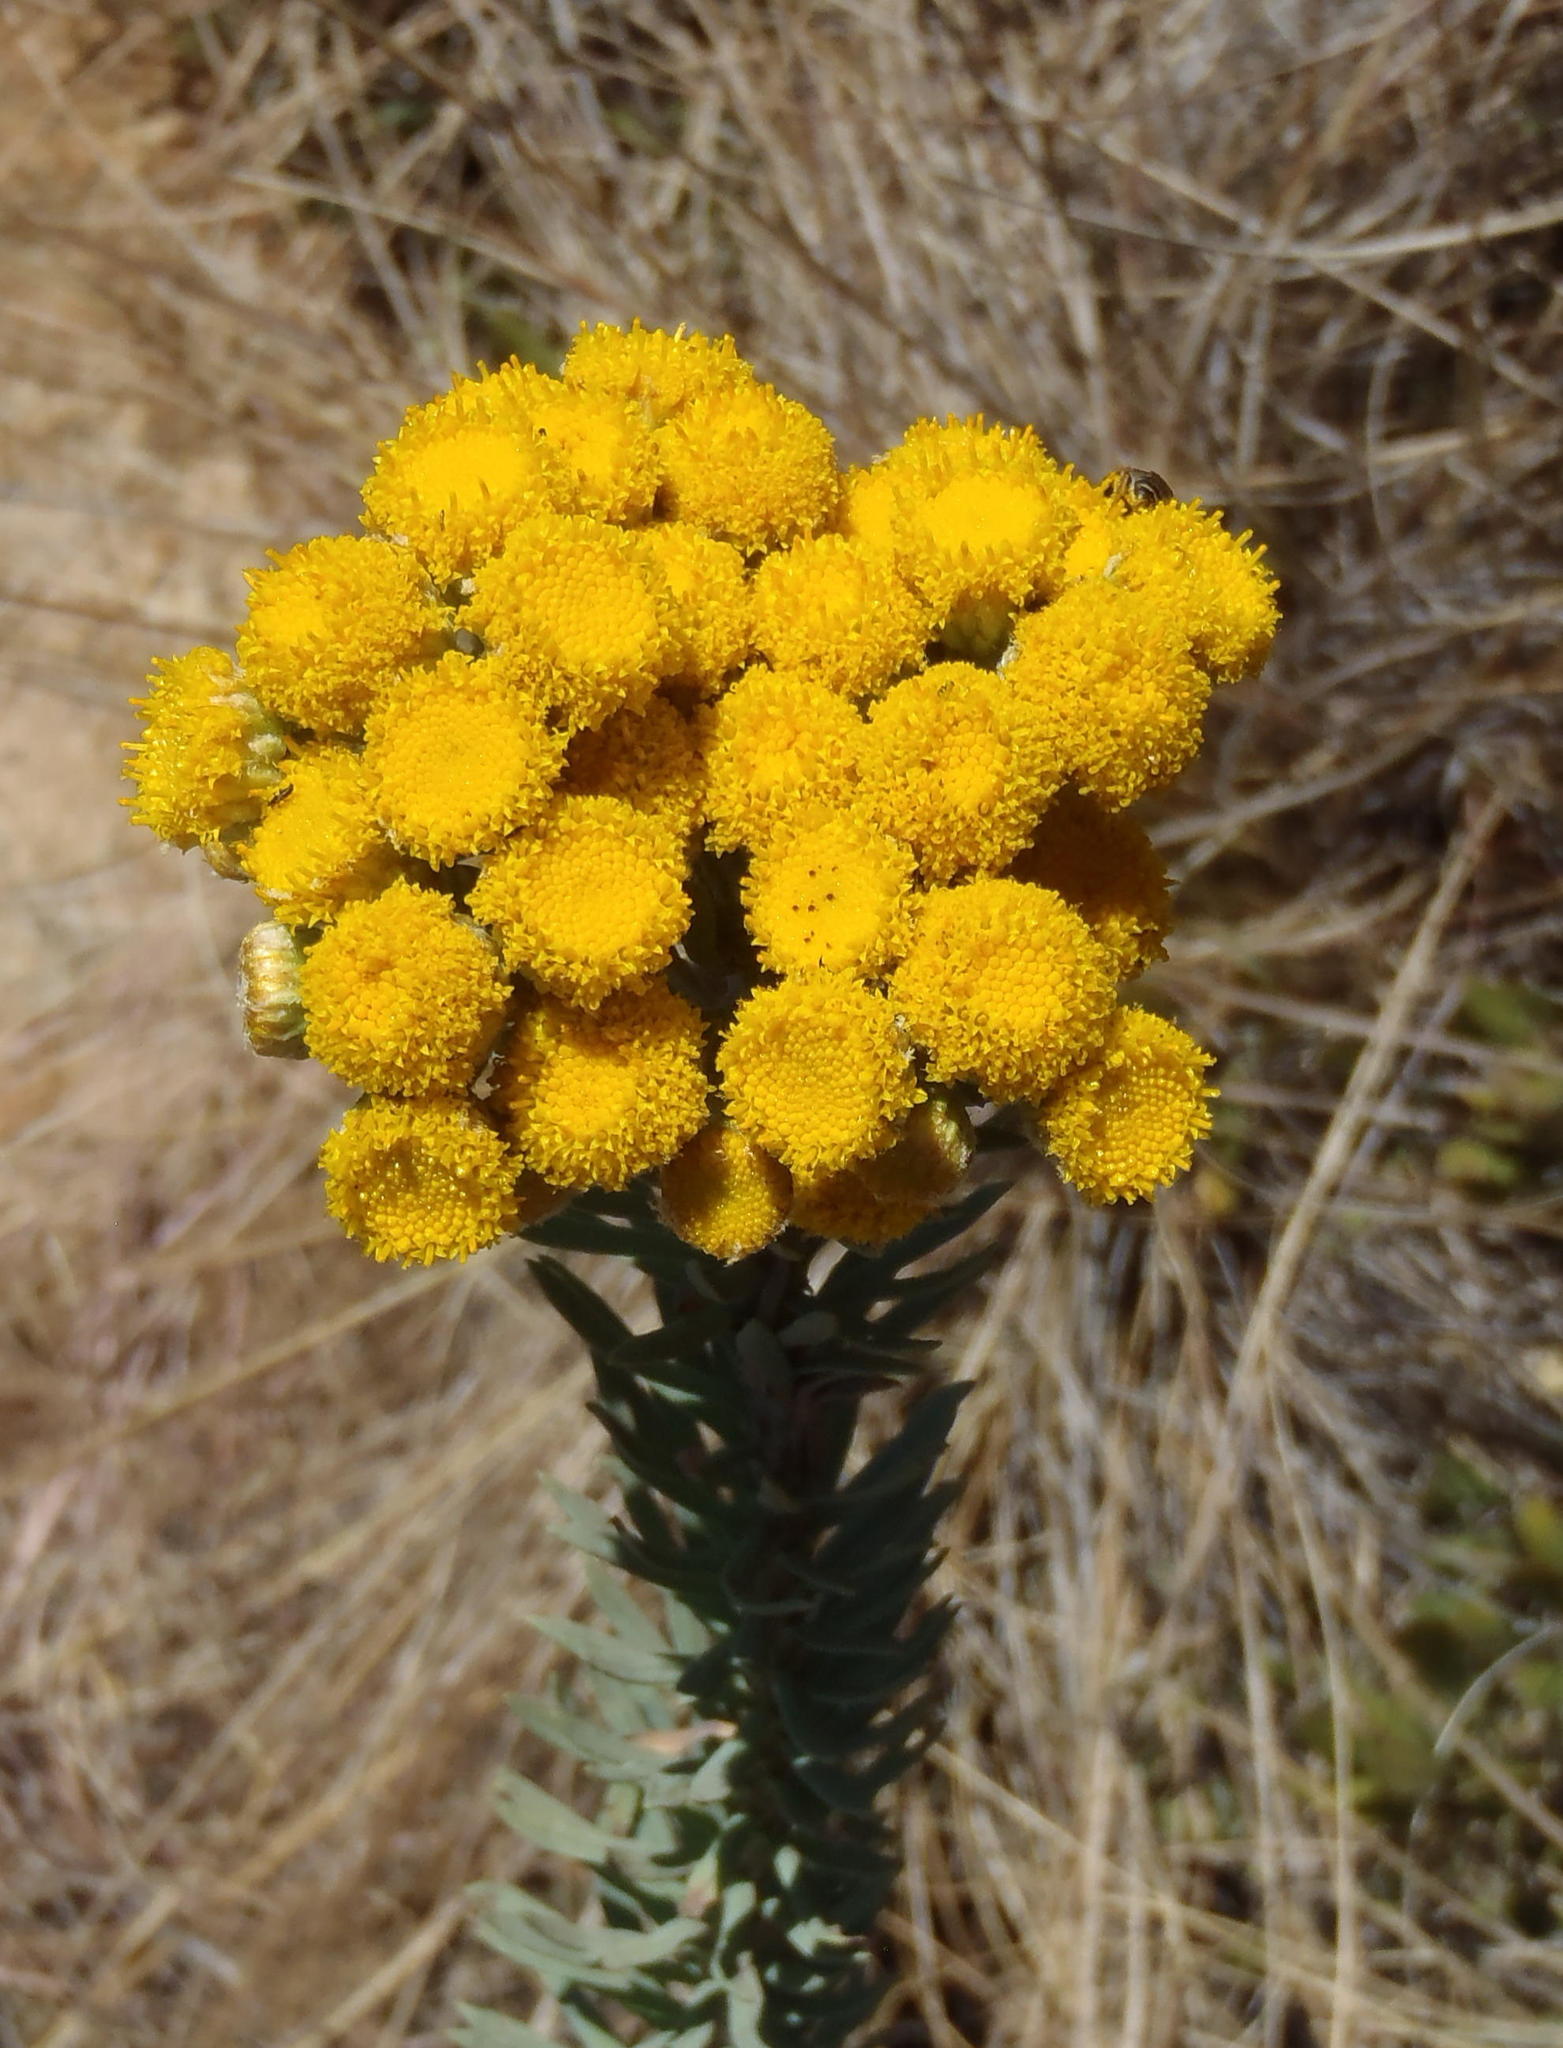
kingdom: Plantae
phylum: Tracheophyta
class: Magnoliopsida
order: Asterales
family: Asteraceae
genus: Phymaspermum
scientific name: Phymaspermum athanasioides
